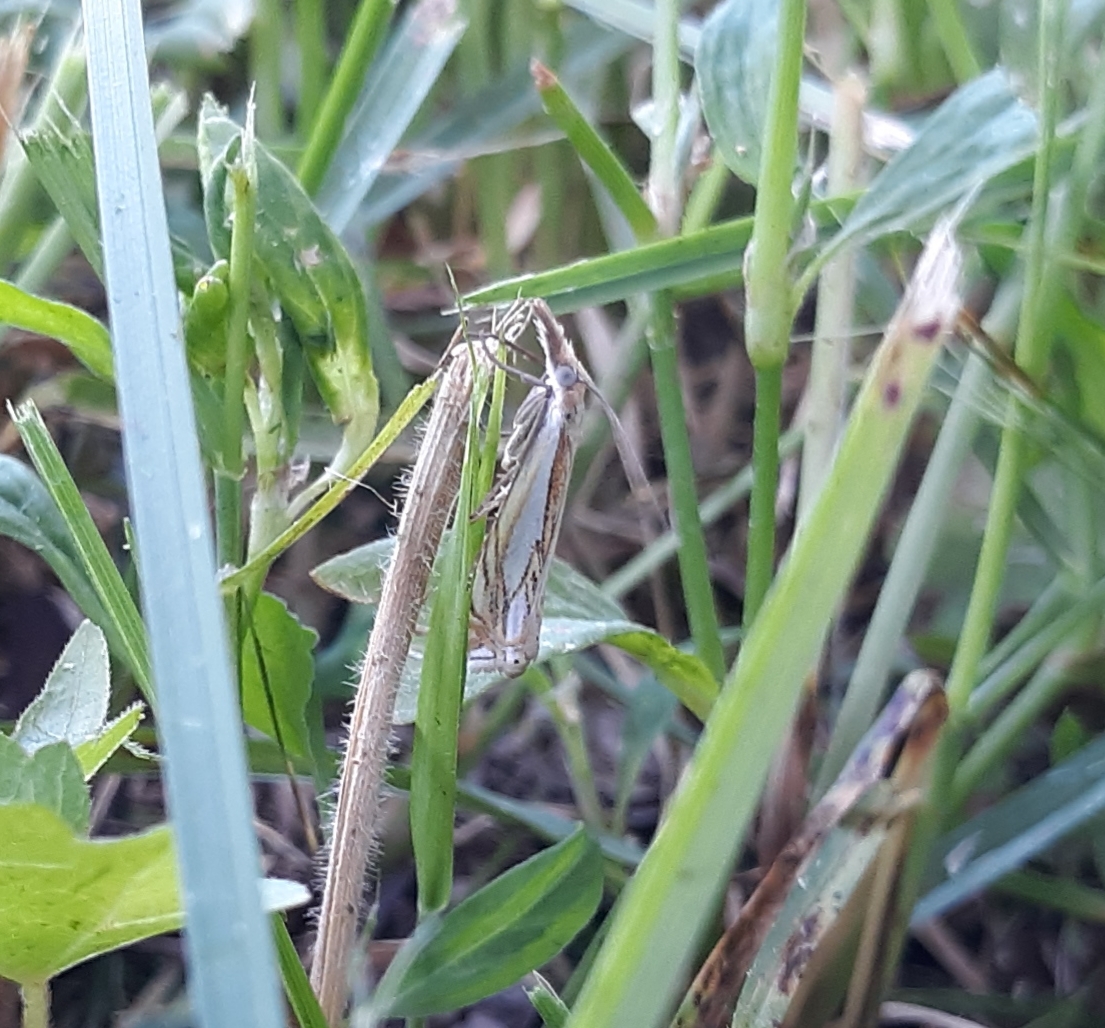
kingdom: Animalia
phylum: Arthropoda
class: Insecta
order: Lepidoptera
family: Crambidae
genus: Crambus
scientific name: Crambus saltuellus
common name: Pasture grass-veneer
